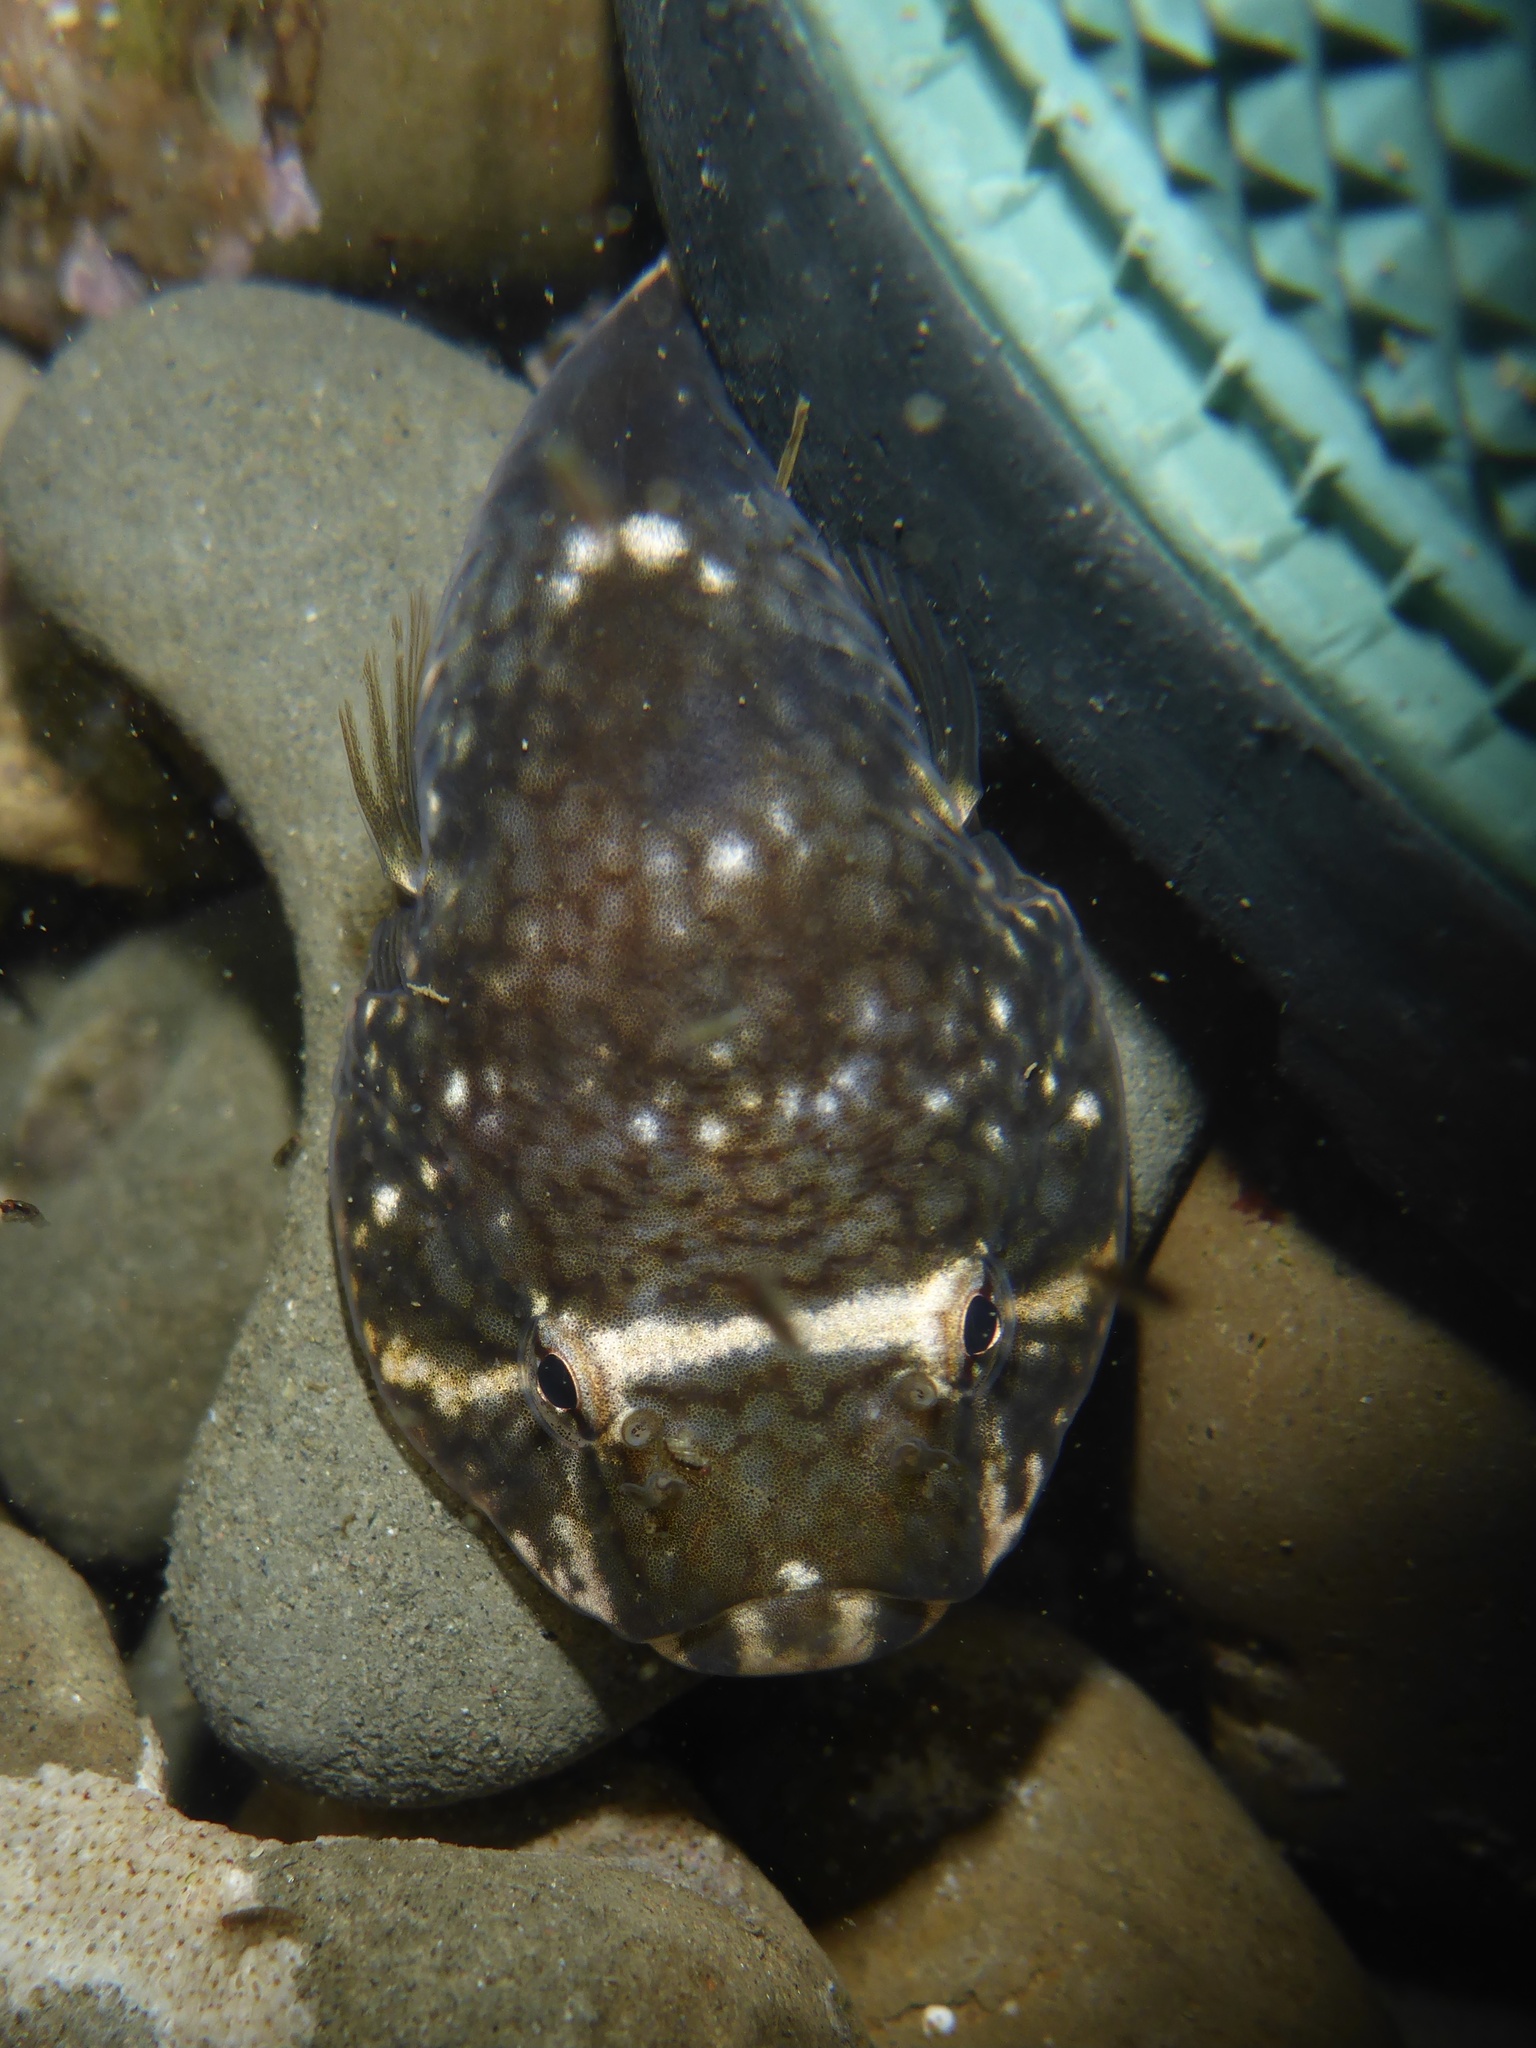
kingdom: Animalia
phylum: Chordata
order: Gobiesociformes
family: Gobiesocidae
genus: Gobiesox
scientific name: Gobiesox maeandricus
